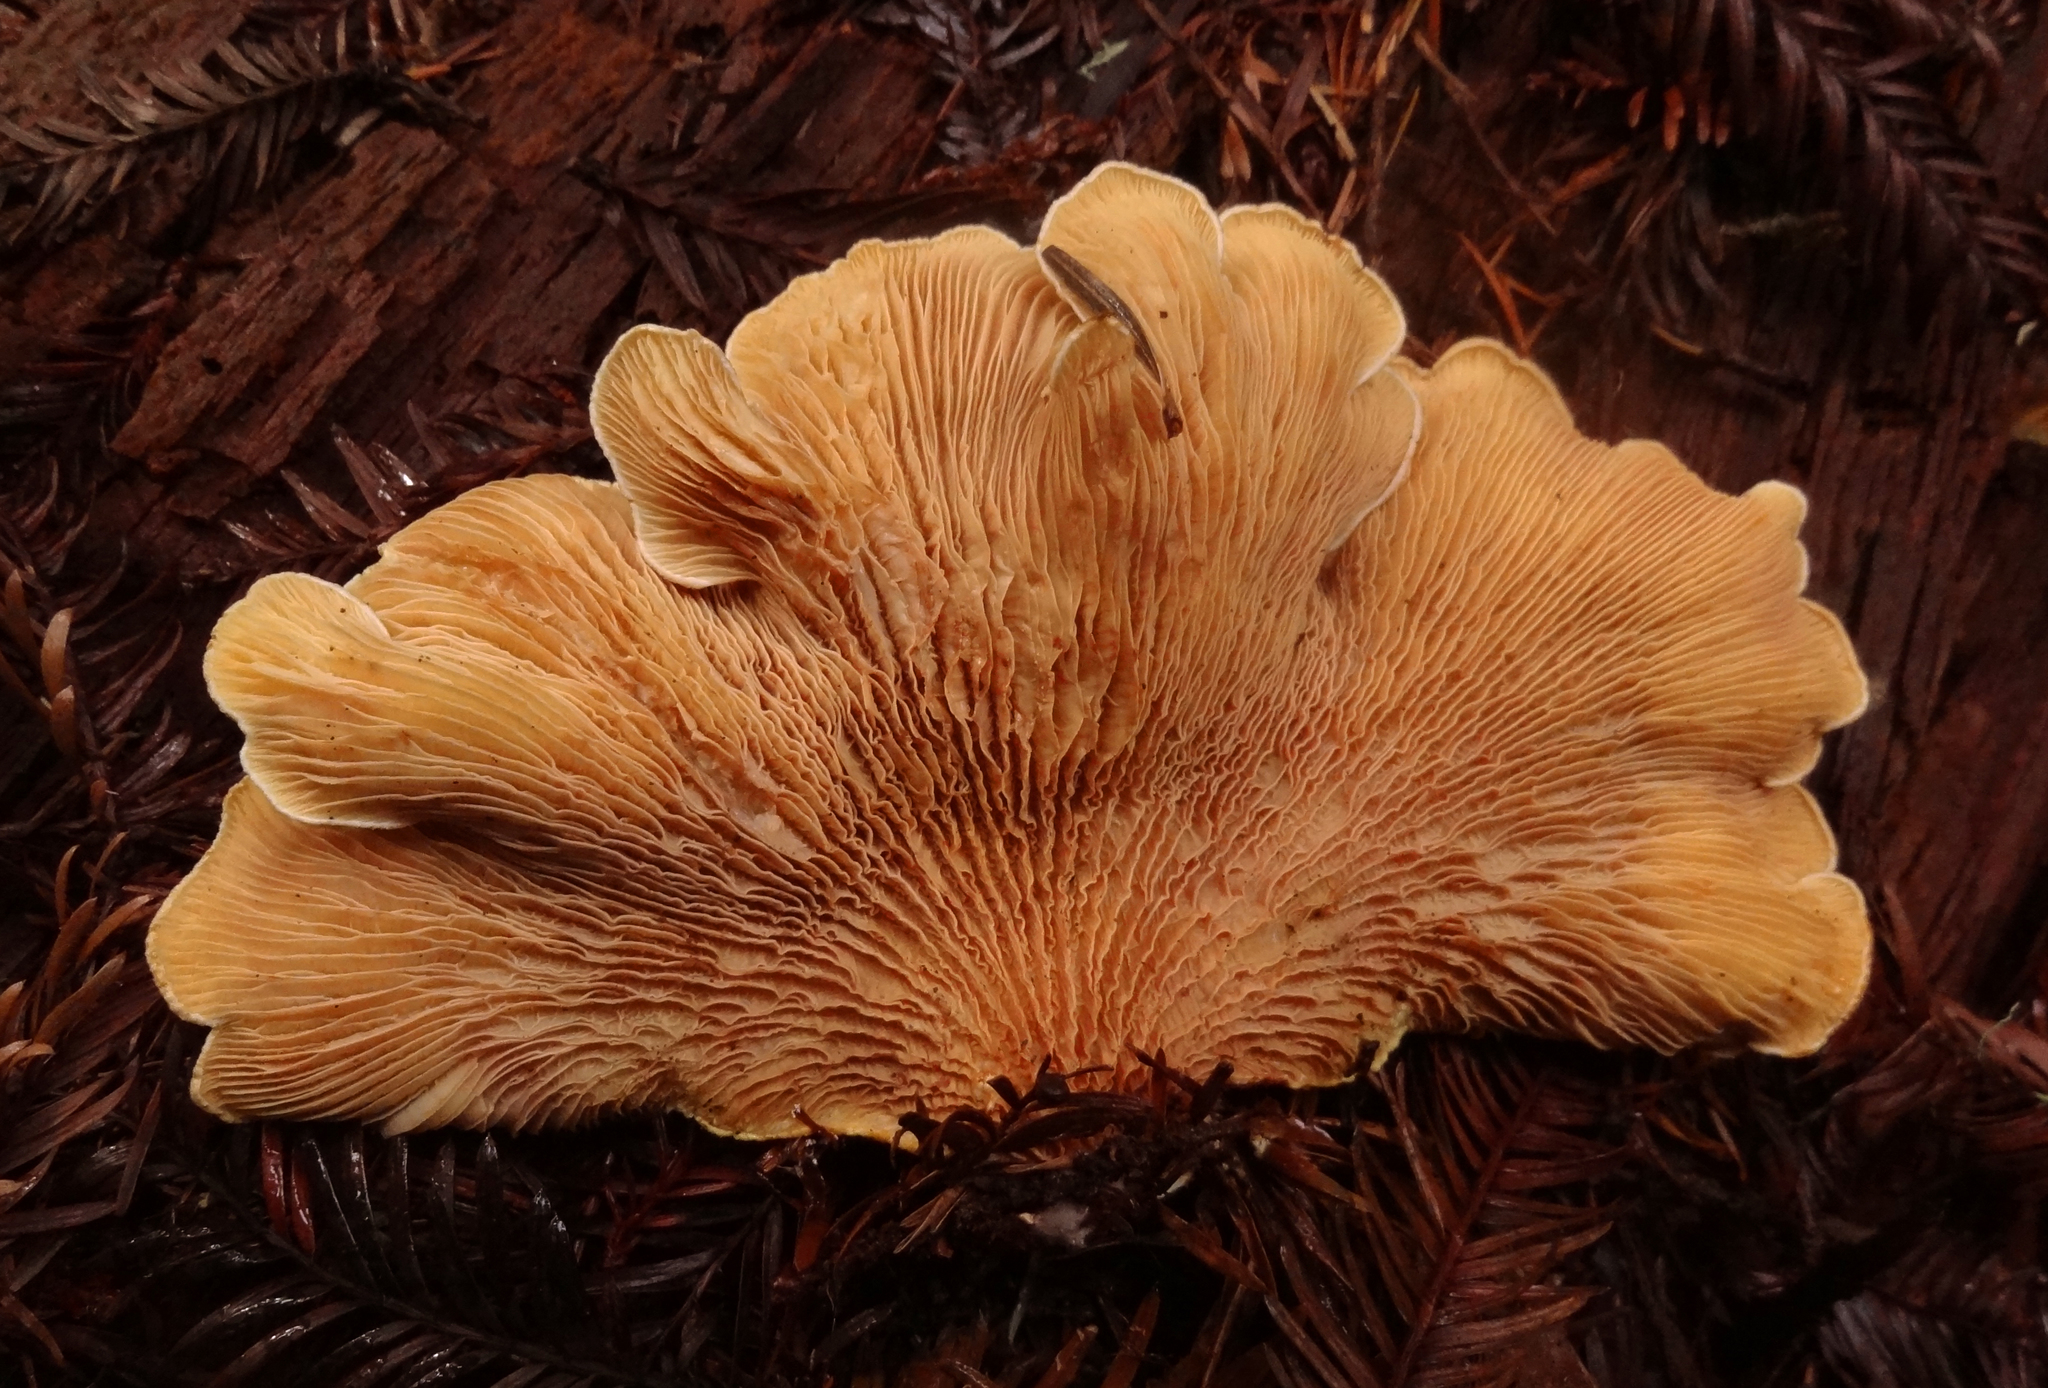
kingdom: Fungi
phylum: Basidiomycota
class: Agaricomycetes
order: Boletales
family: Tapinellaceae
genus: Tapinella
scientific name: Tapinella panuoides
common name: Oyster rollrim
